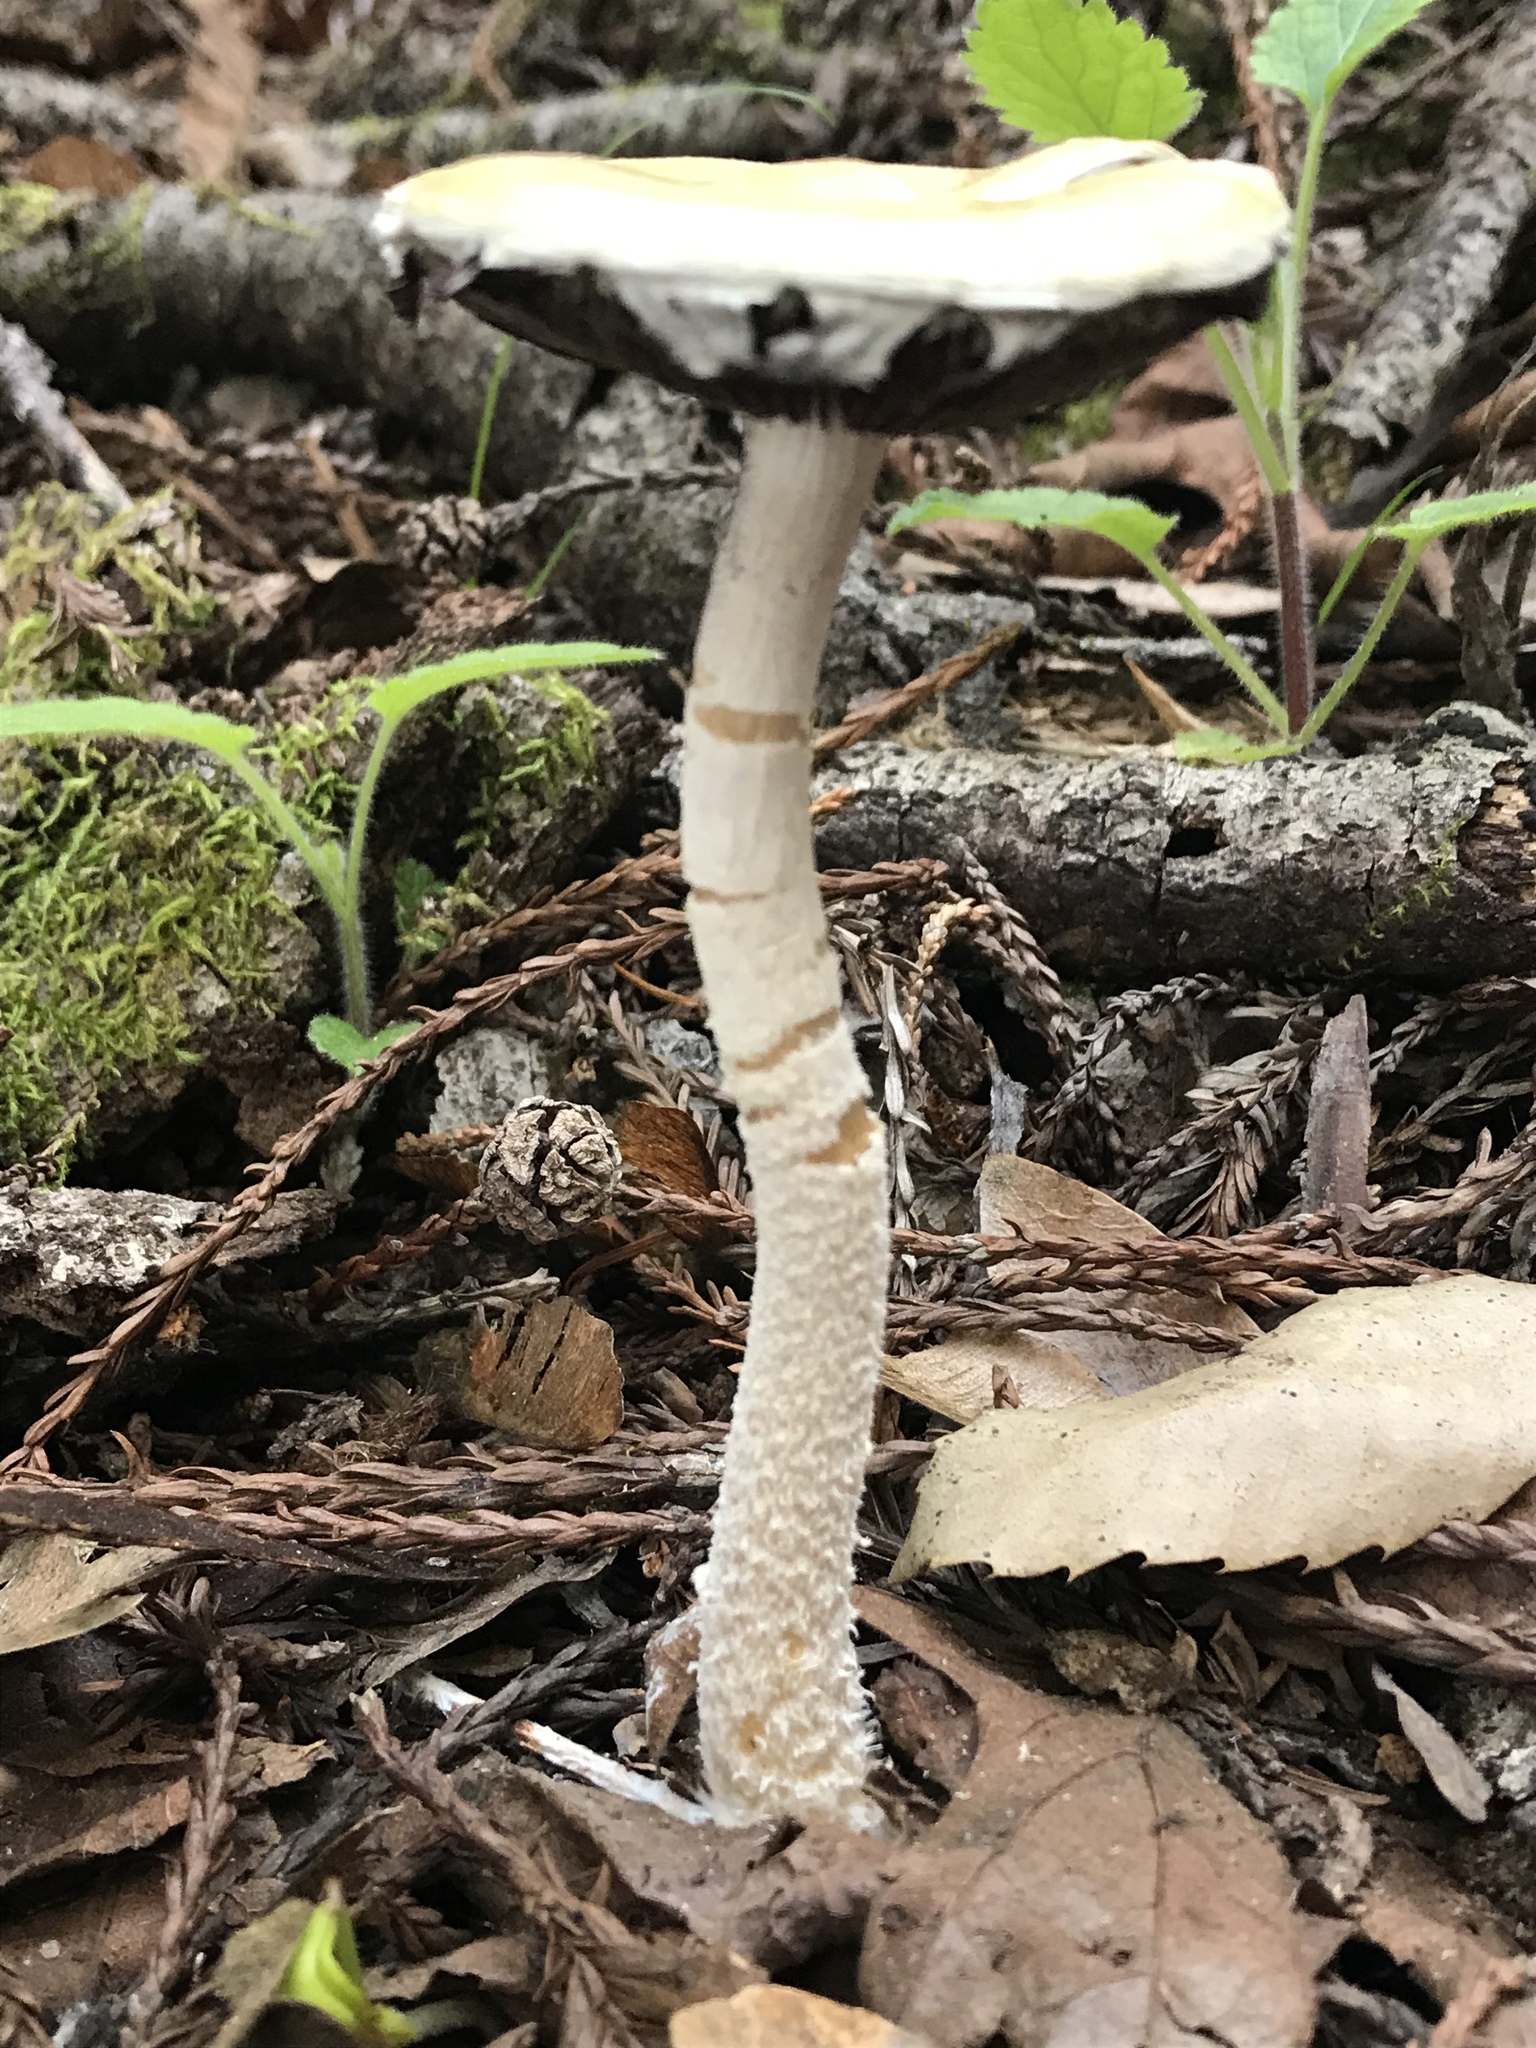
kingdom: Fungi
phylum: Basidiomycota
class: Agaricomycetes
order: Agaricales
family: Strophariaceae
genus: Stropharia
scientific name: Stropharia ambigua
